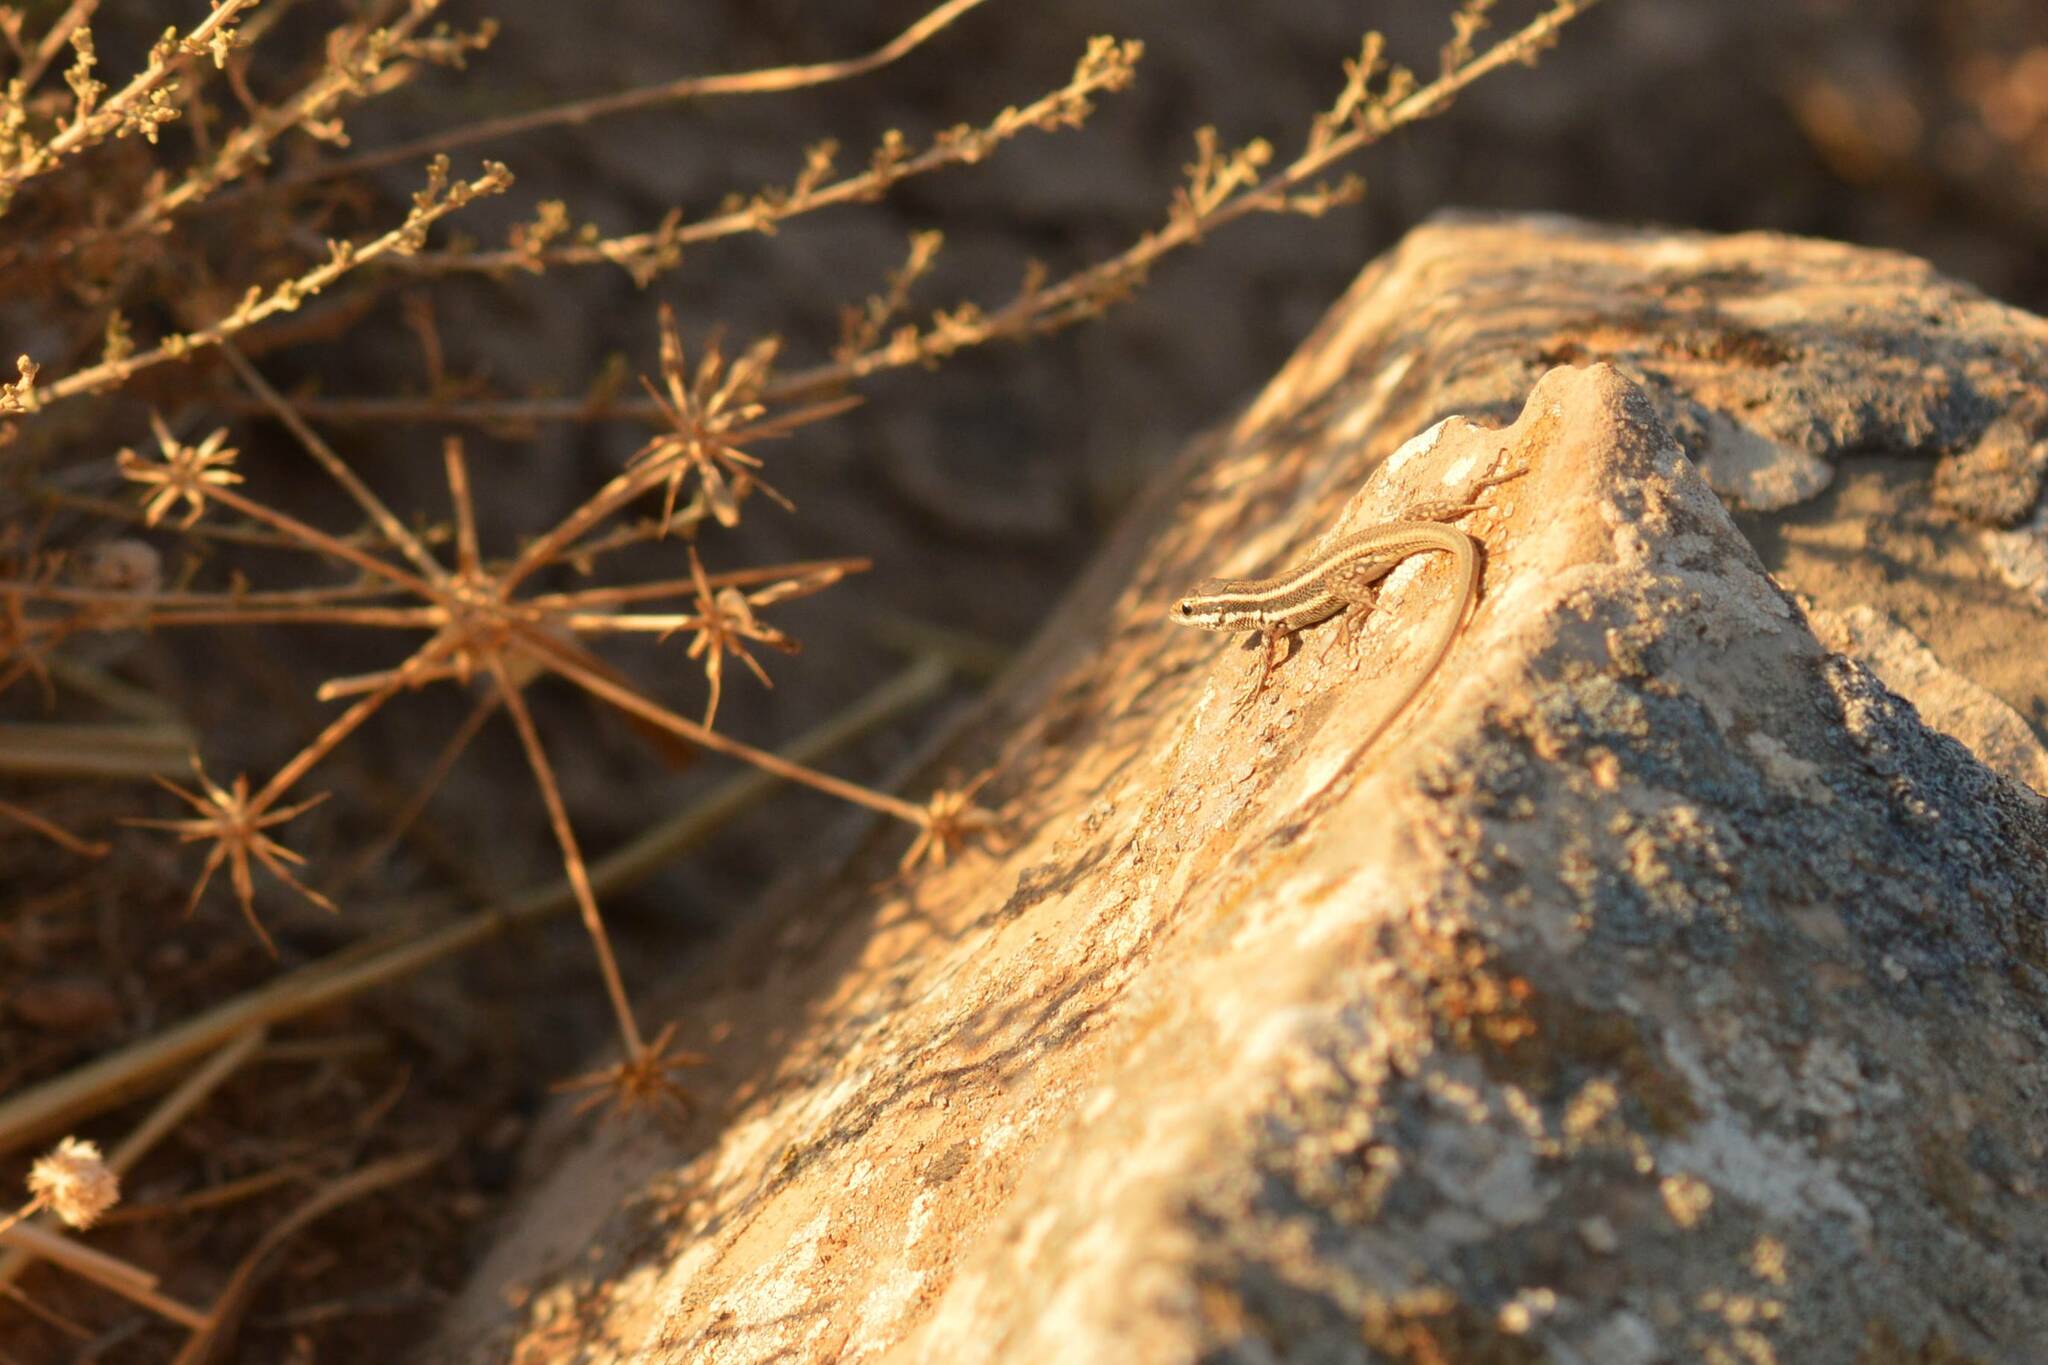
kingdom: Animalia
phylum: Chordata
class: Squamata
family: Lacertidae
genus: Ophisops
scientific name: Ophisops occidentalis
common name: Western snake-eyed lizard
